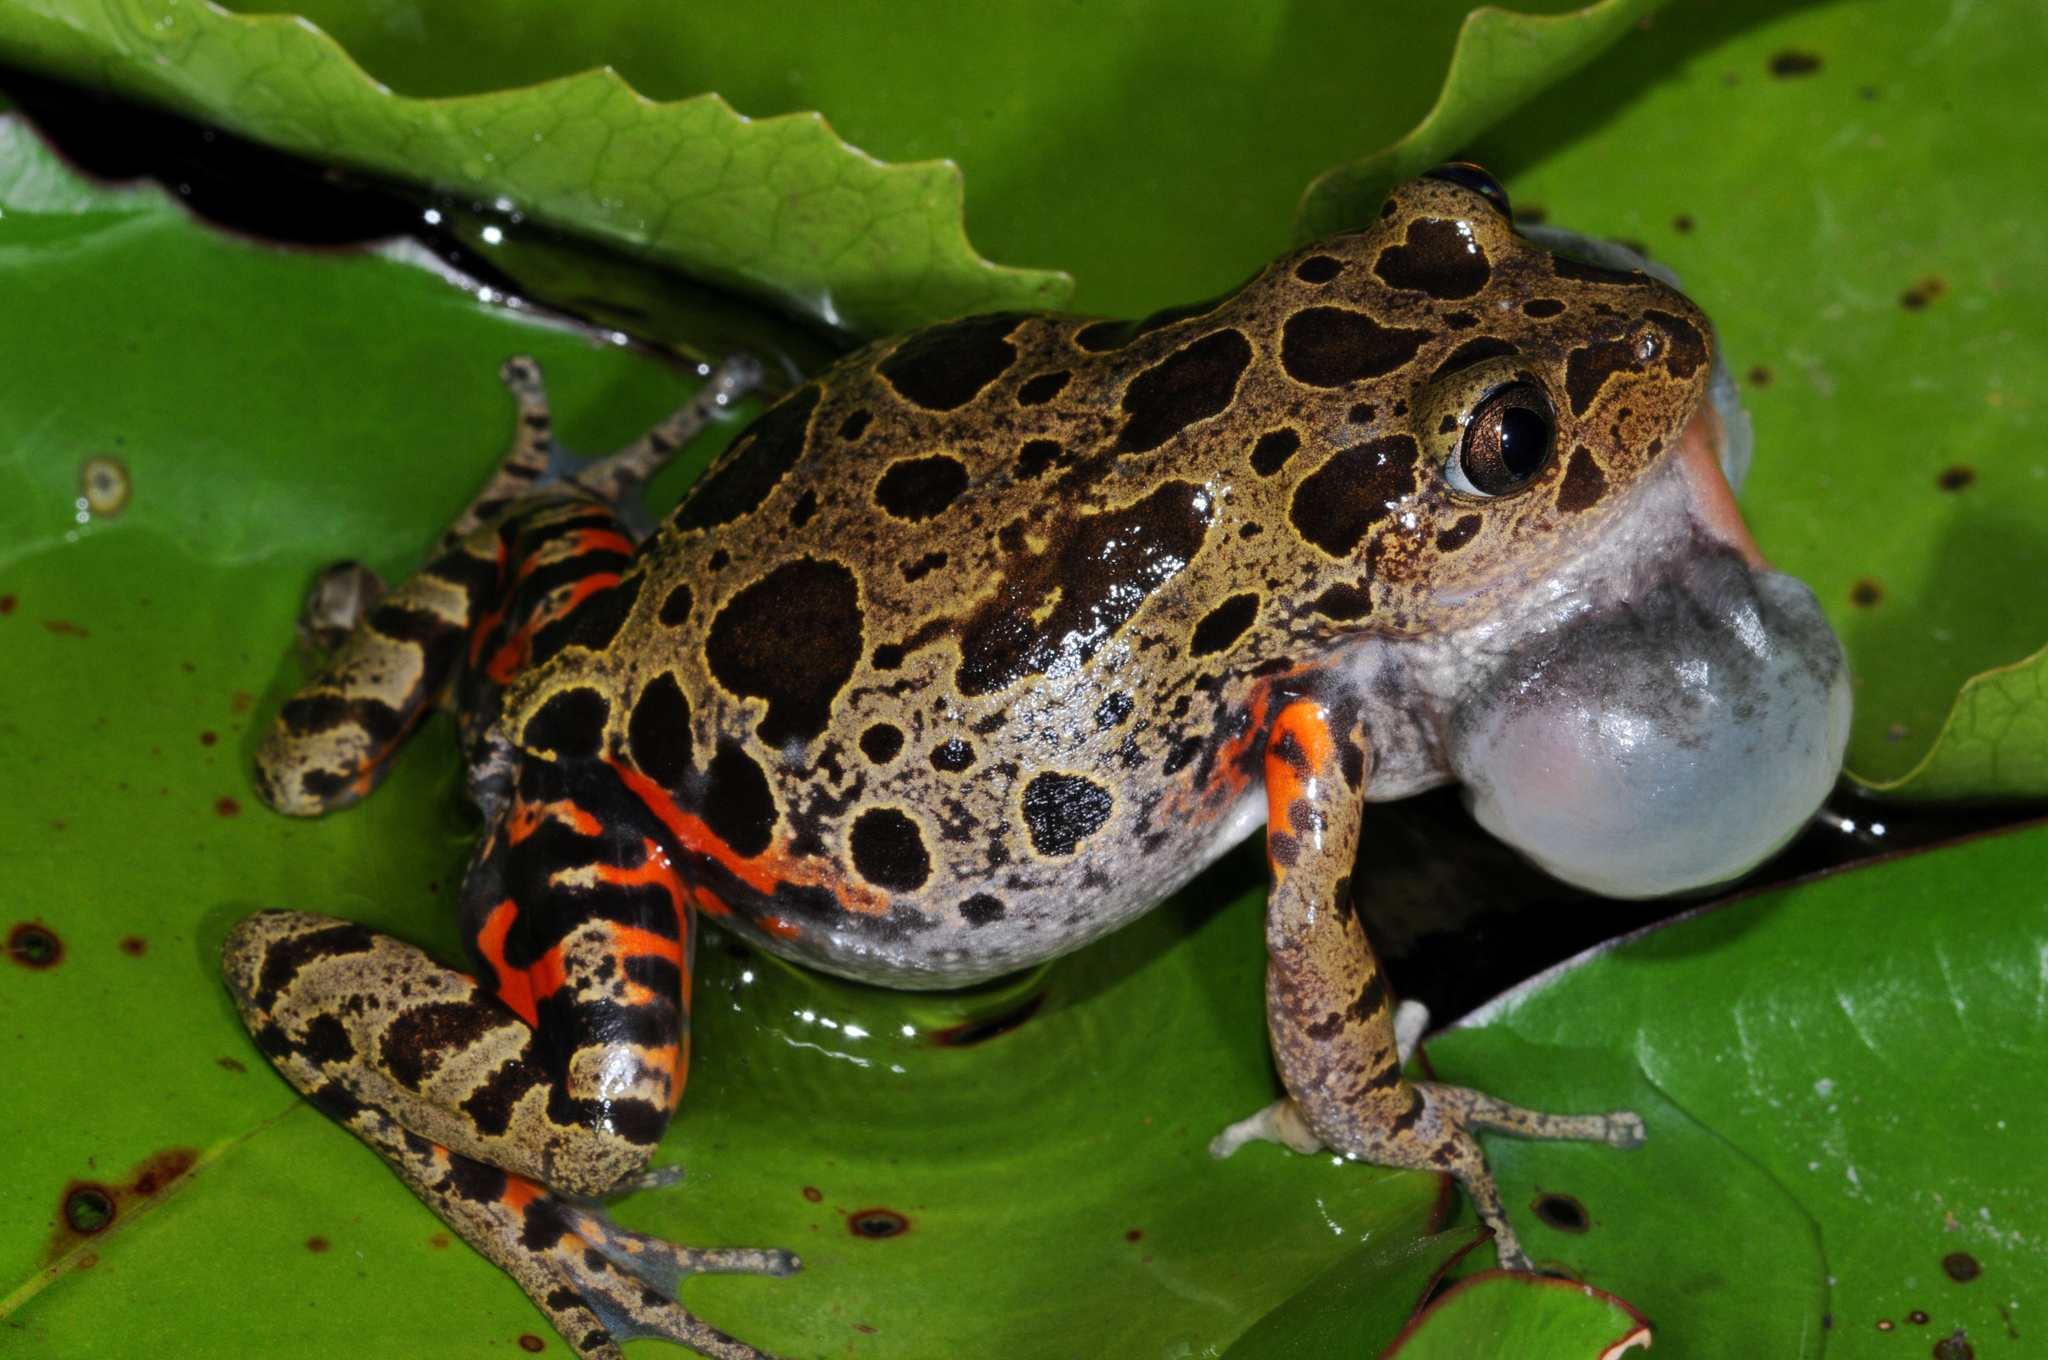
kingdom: Animalia
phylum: Chordata
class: Amphibia
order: Anura
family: Hyperoliidae
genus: Phlyctimantis
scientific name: Phlyctimantis maculatus
